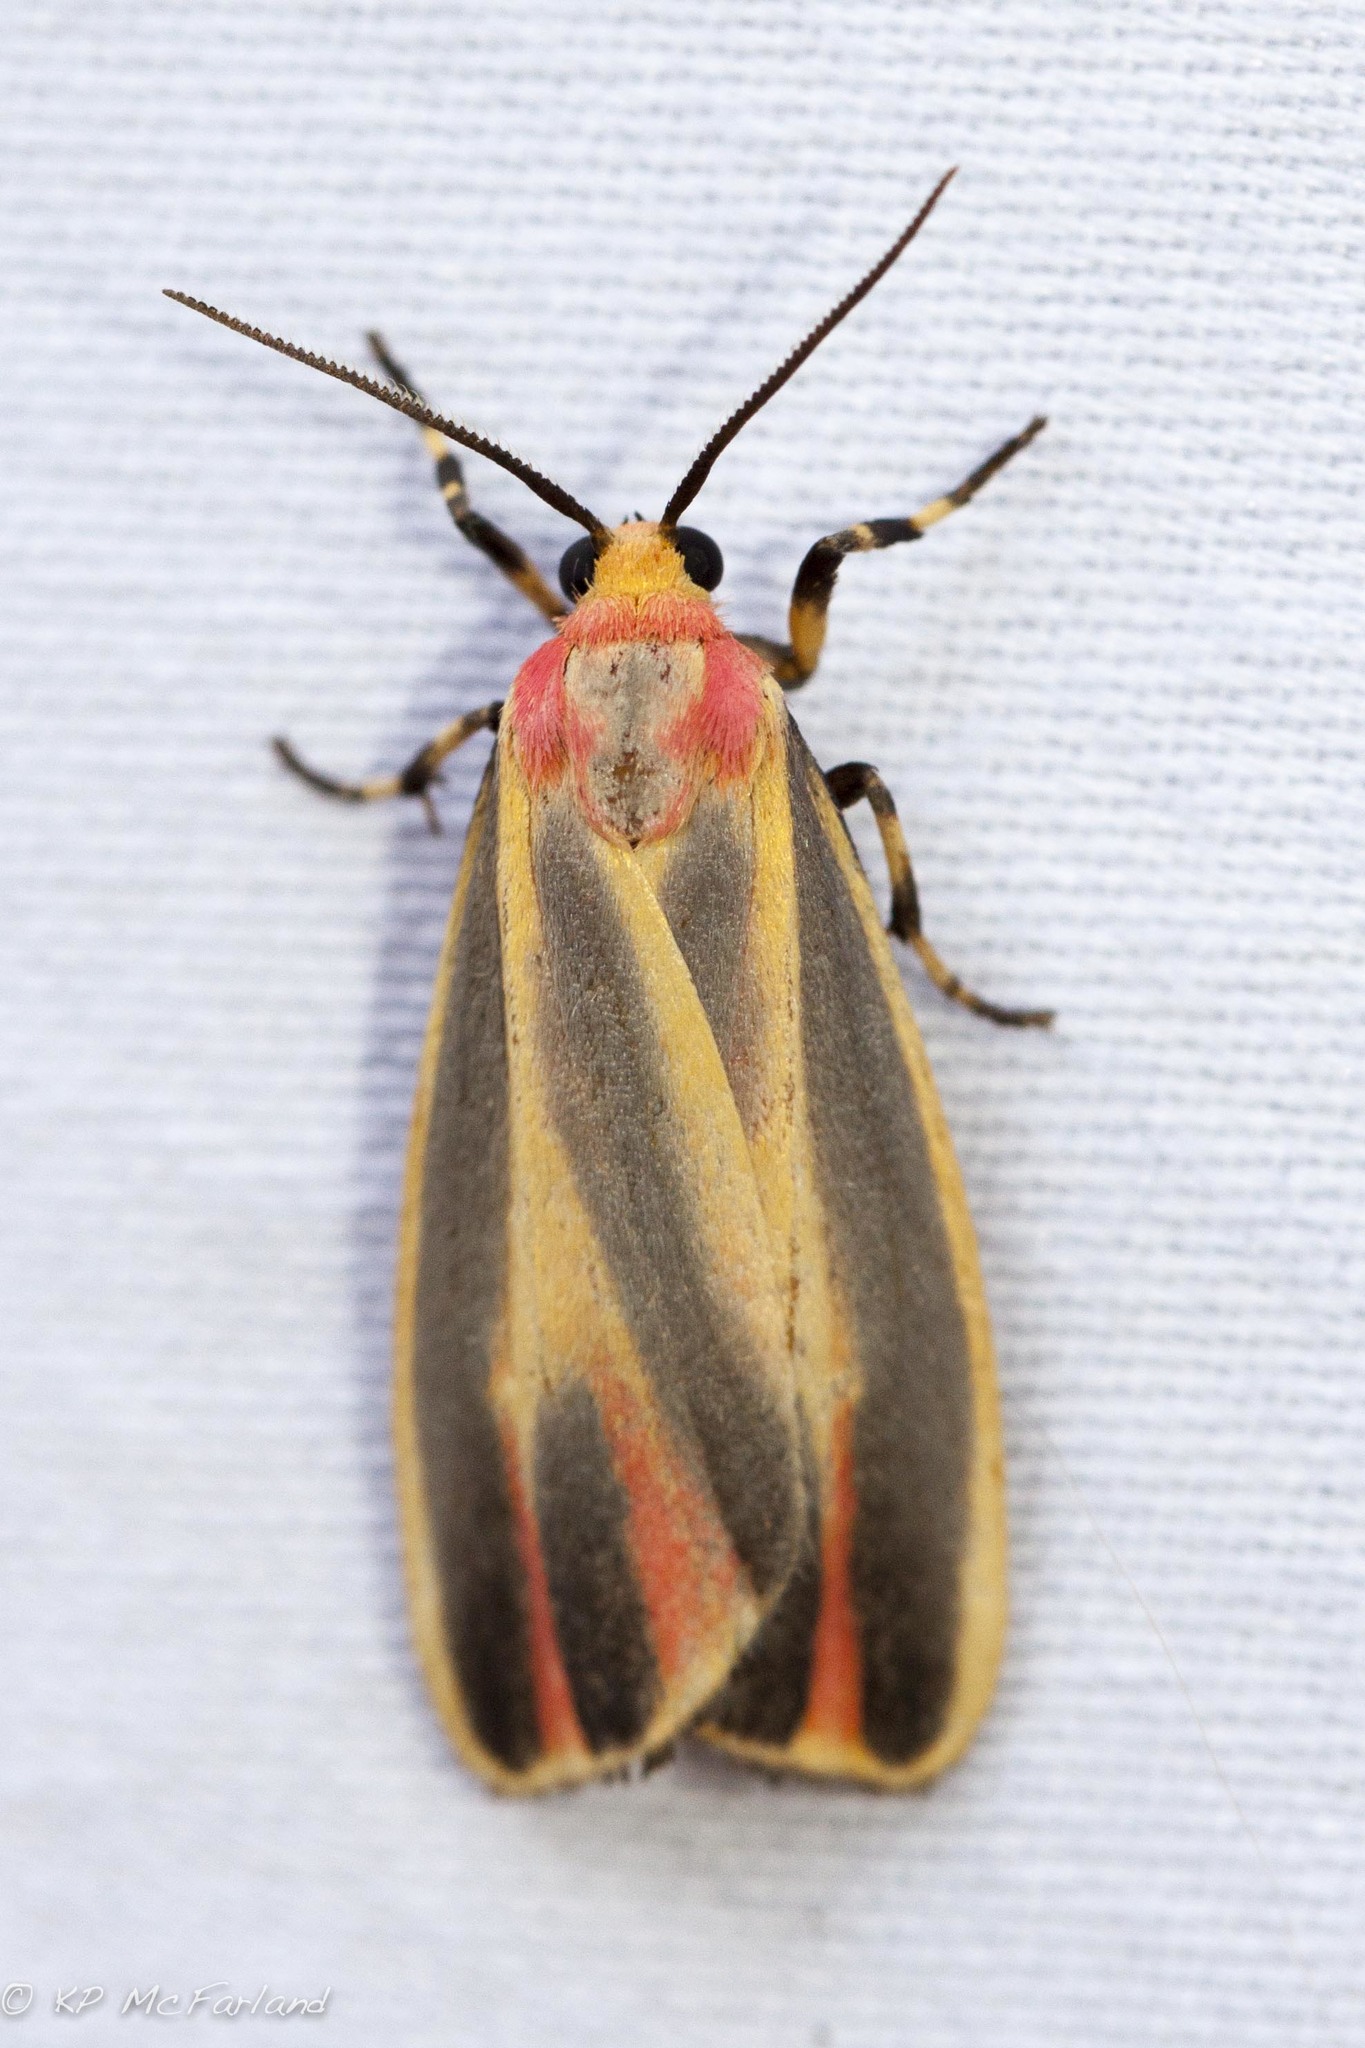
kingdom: Animalia
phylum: Arthropoda
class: Insecta
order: Lepidoptera
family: Erebidae
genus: Hypoprepia
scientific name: Hypoprepia fucosa
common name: Painted lichen moth
